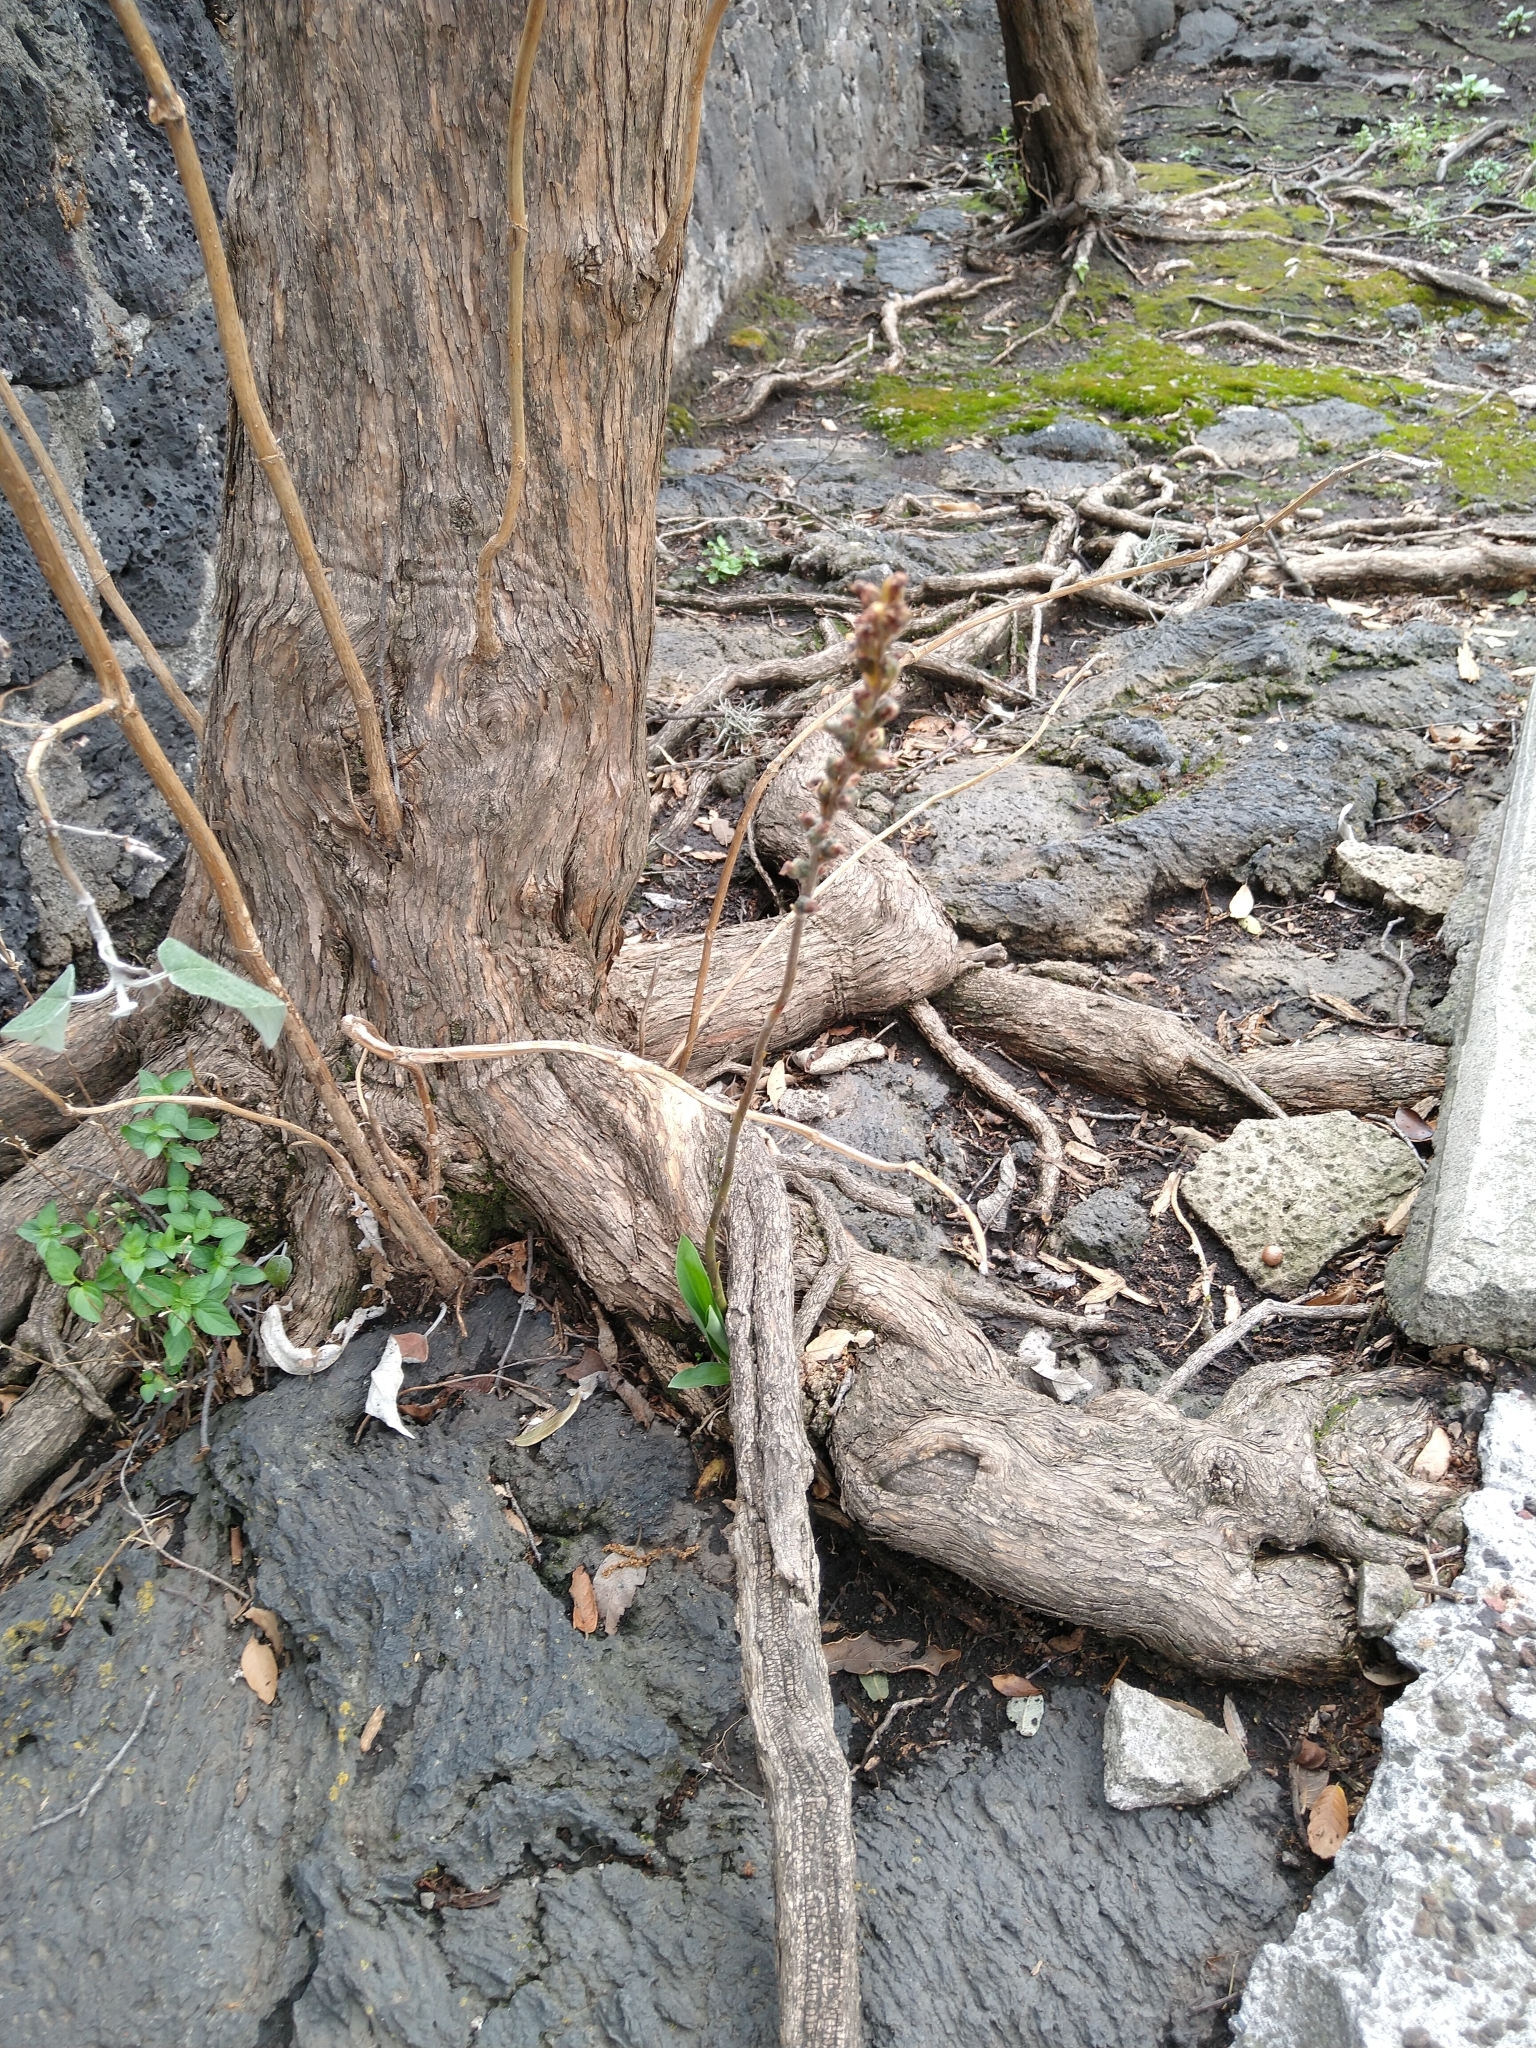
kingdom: Plantae
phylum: Tracheophyta
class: Liliopsida
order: Asparagales
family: Orchidaceae
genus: Sarcoglottis
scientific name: Sarcoglottis schaffneri
